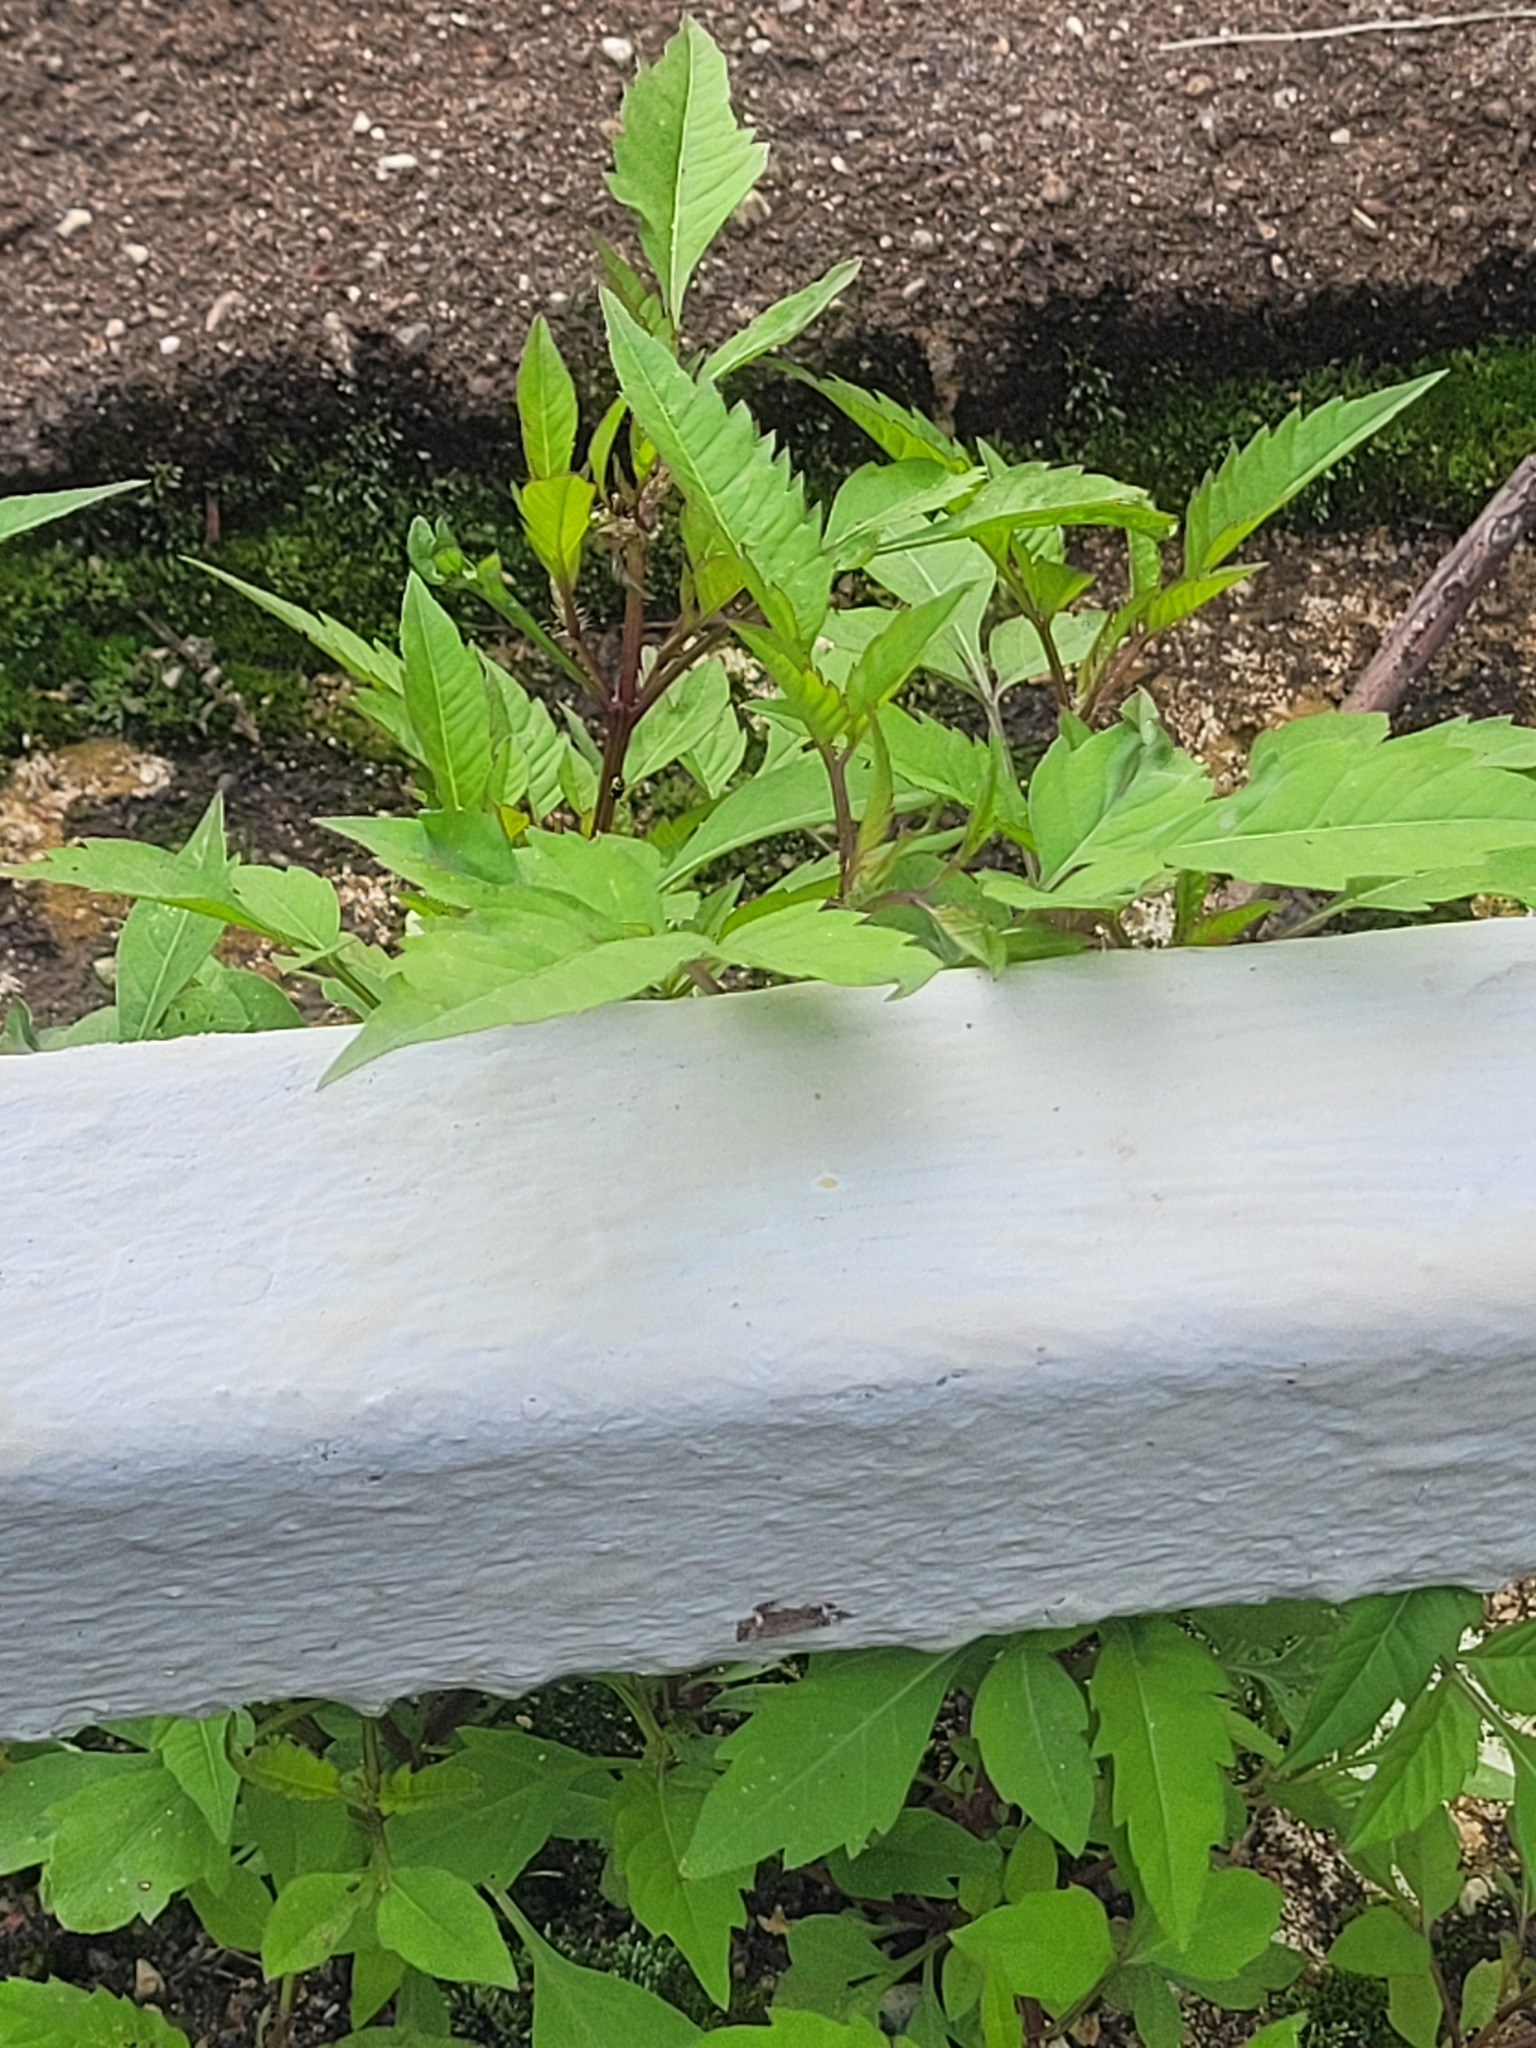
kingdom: Plantae
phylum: Tracheophyta
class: Magnoliopsida
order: Asterales
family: Asteraceae
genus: Bidens
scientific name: Bidens frondosa
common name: Beggarticks
